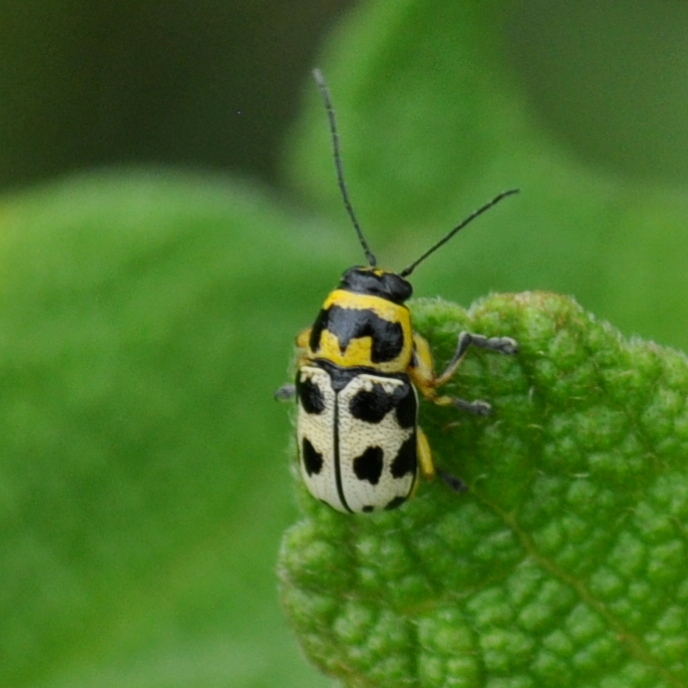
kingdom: Animalia
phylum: Arthropoda
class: Insecta
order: Coleoptera
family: Chrysomelidae
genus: Metallactus
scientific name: Metallactus pollens
